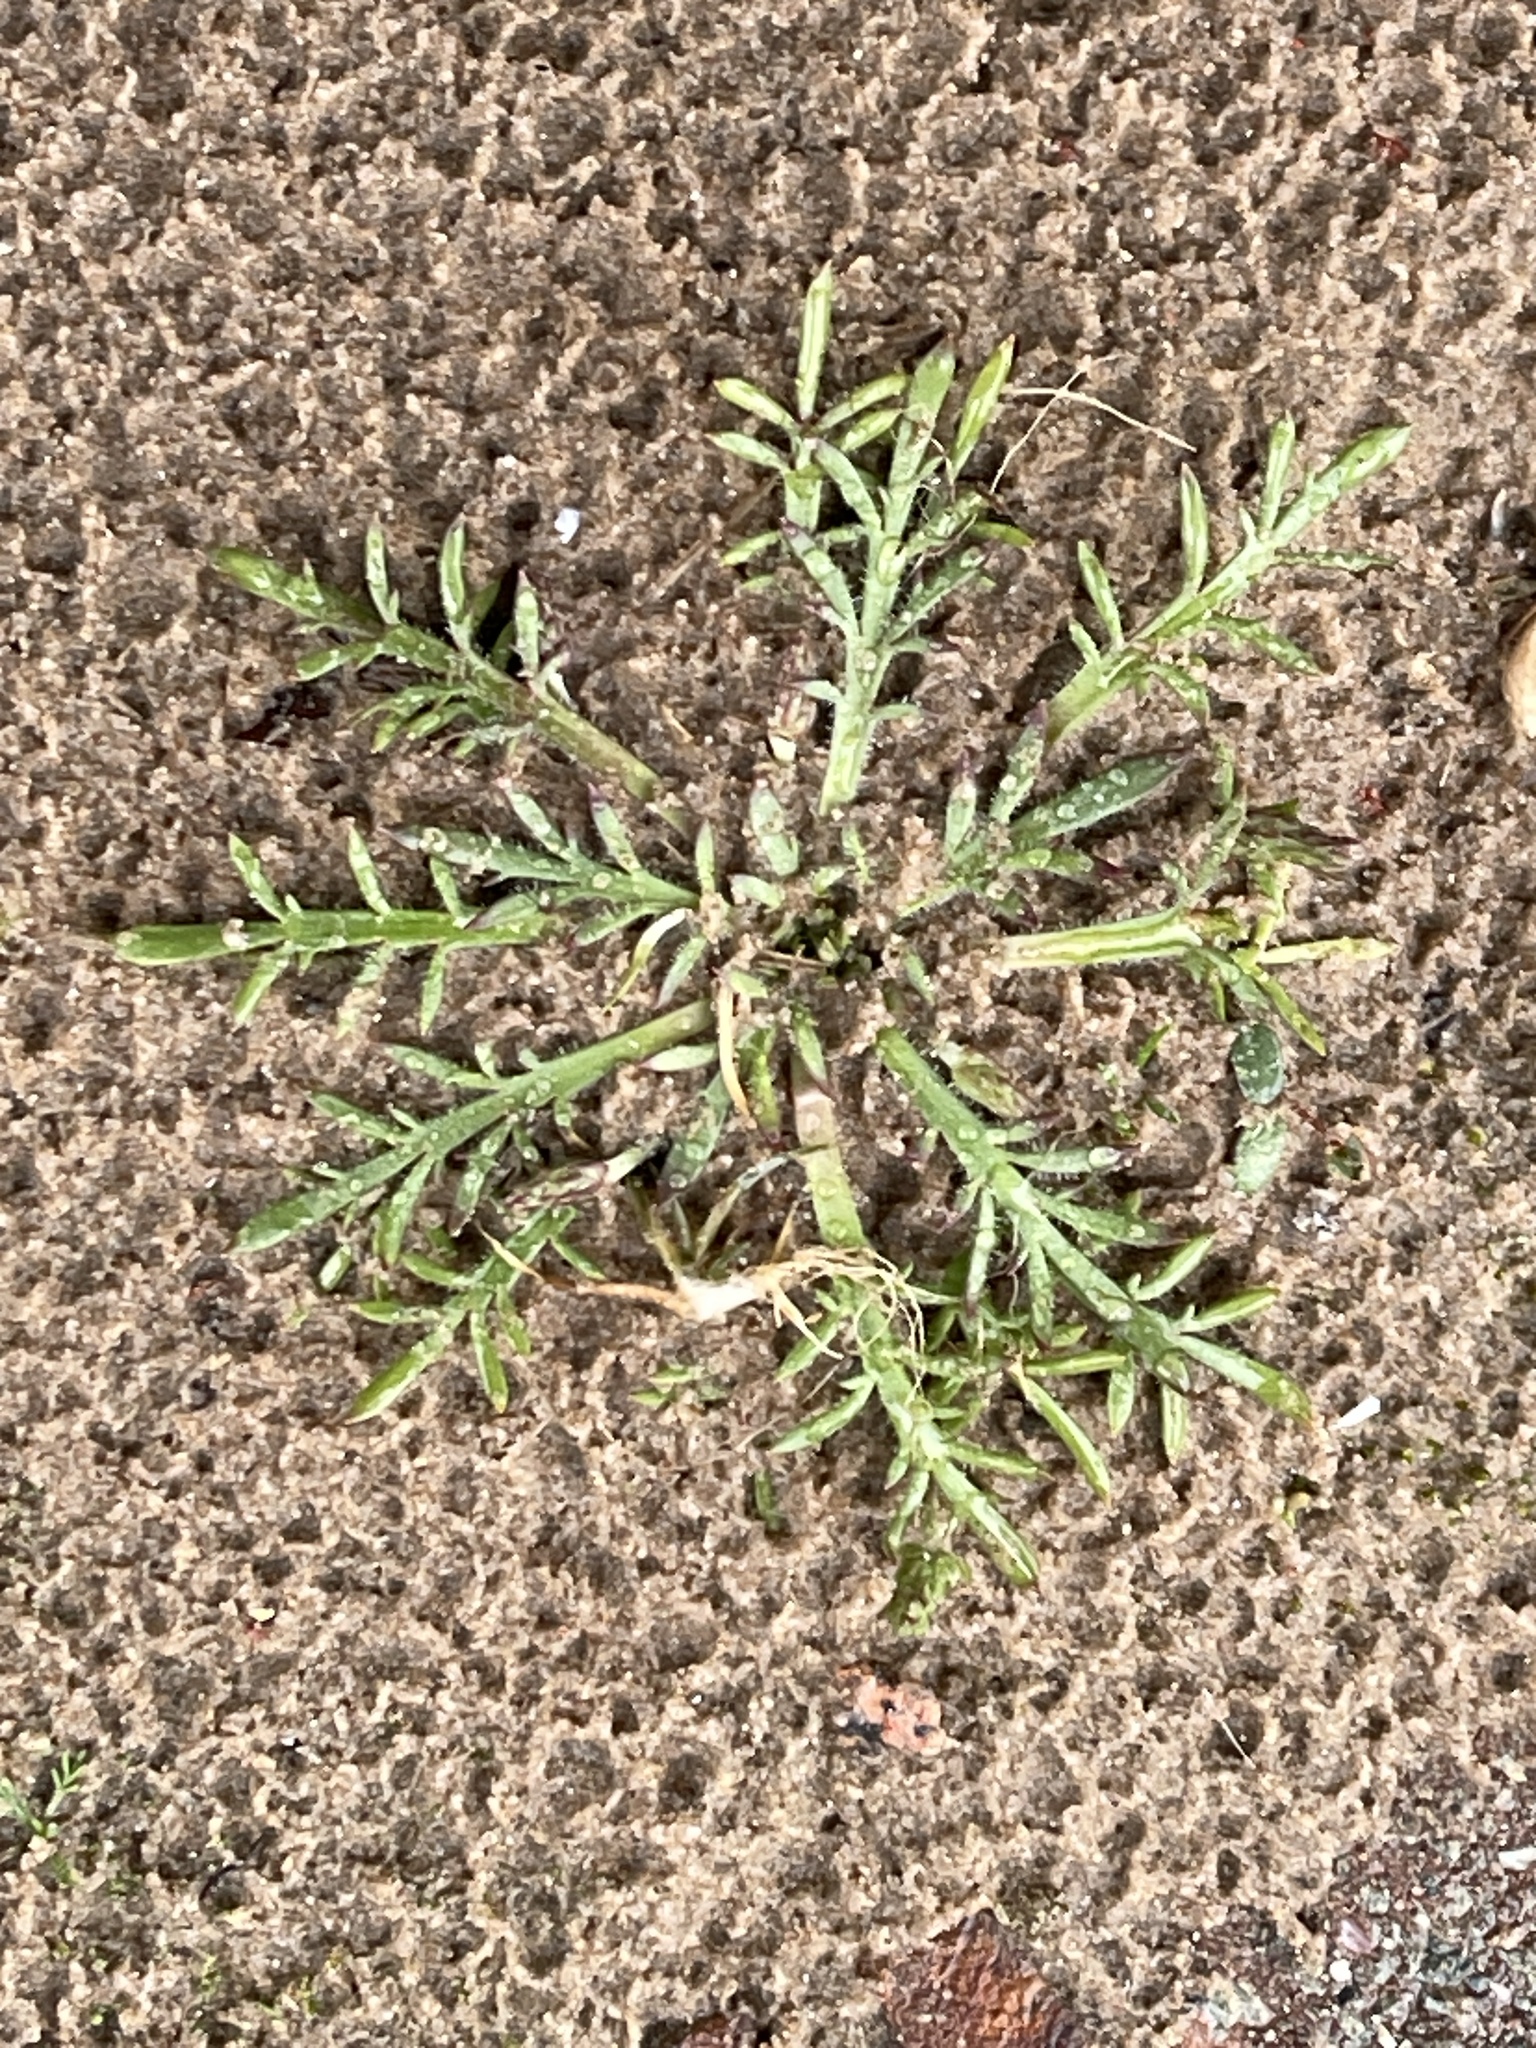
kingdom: Plantae
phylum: Tracheophyta
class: Magnoliopsida
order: Lamiales
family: Plantaginaceae
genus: Plantago
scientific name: Plantago coronopus
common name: Buck's-horn plantain
